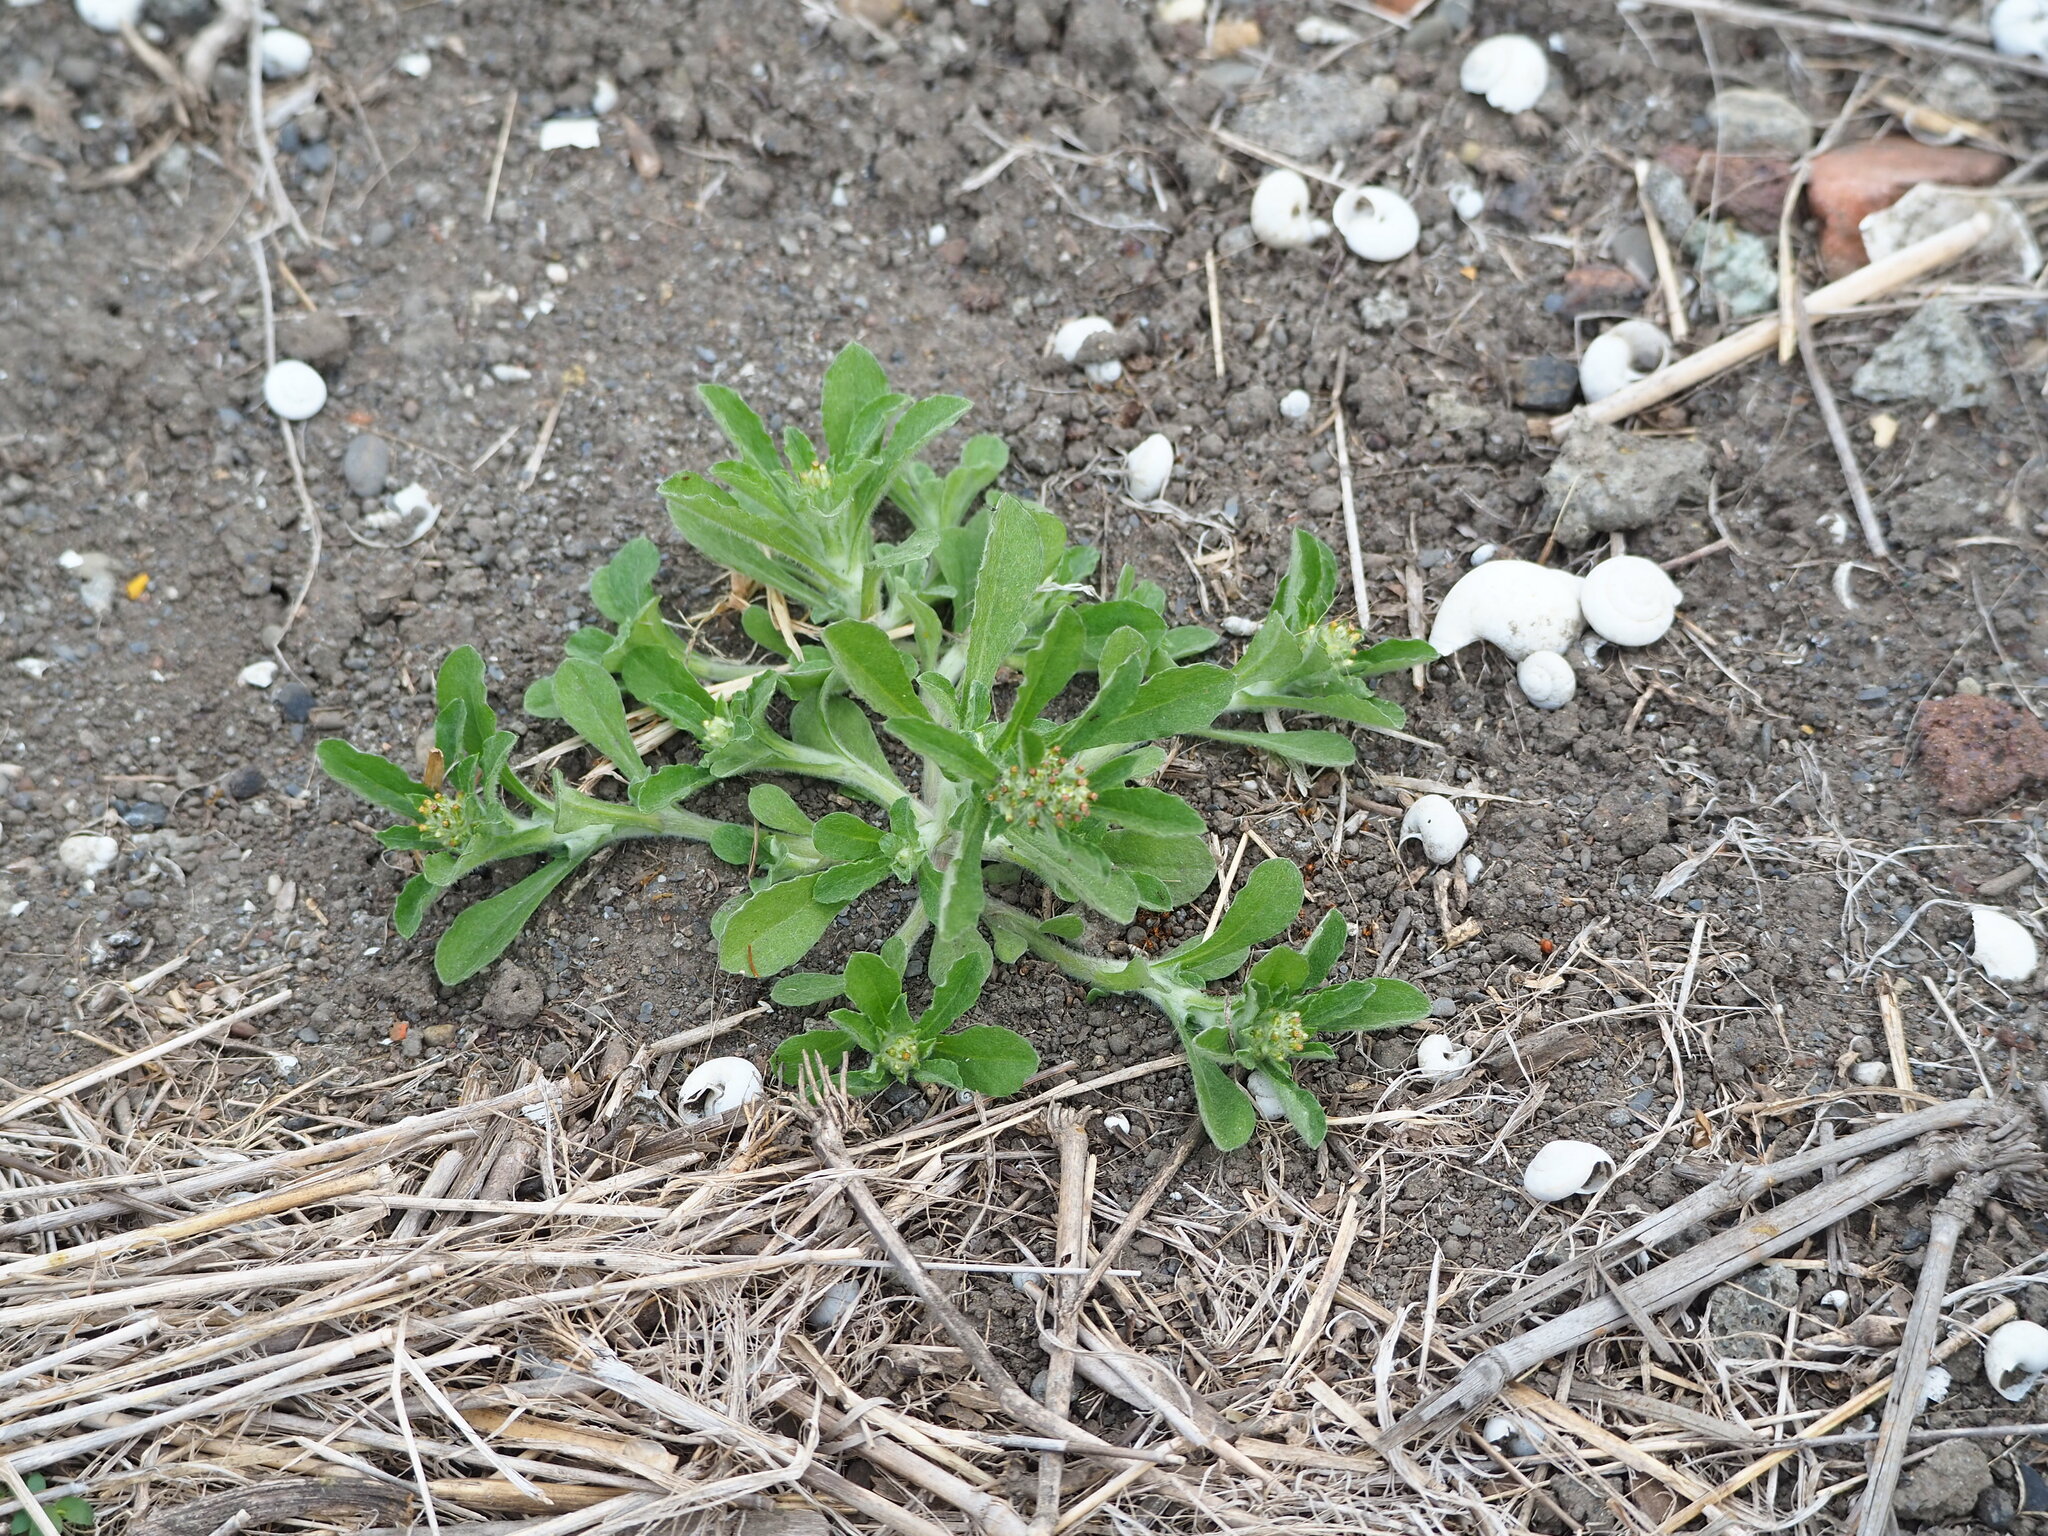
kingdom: Plantae
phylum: Tracheophyta
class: Magnoliopsida
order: Asterales
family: Asteraceae
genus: Gamochaeta
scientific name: Gamochaeta pensylvanica
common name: Pennsylvania everlasting
